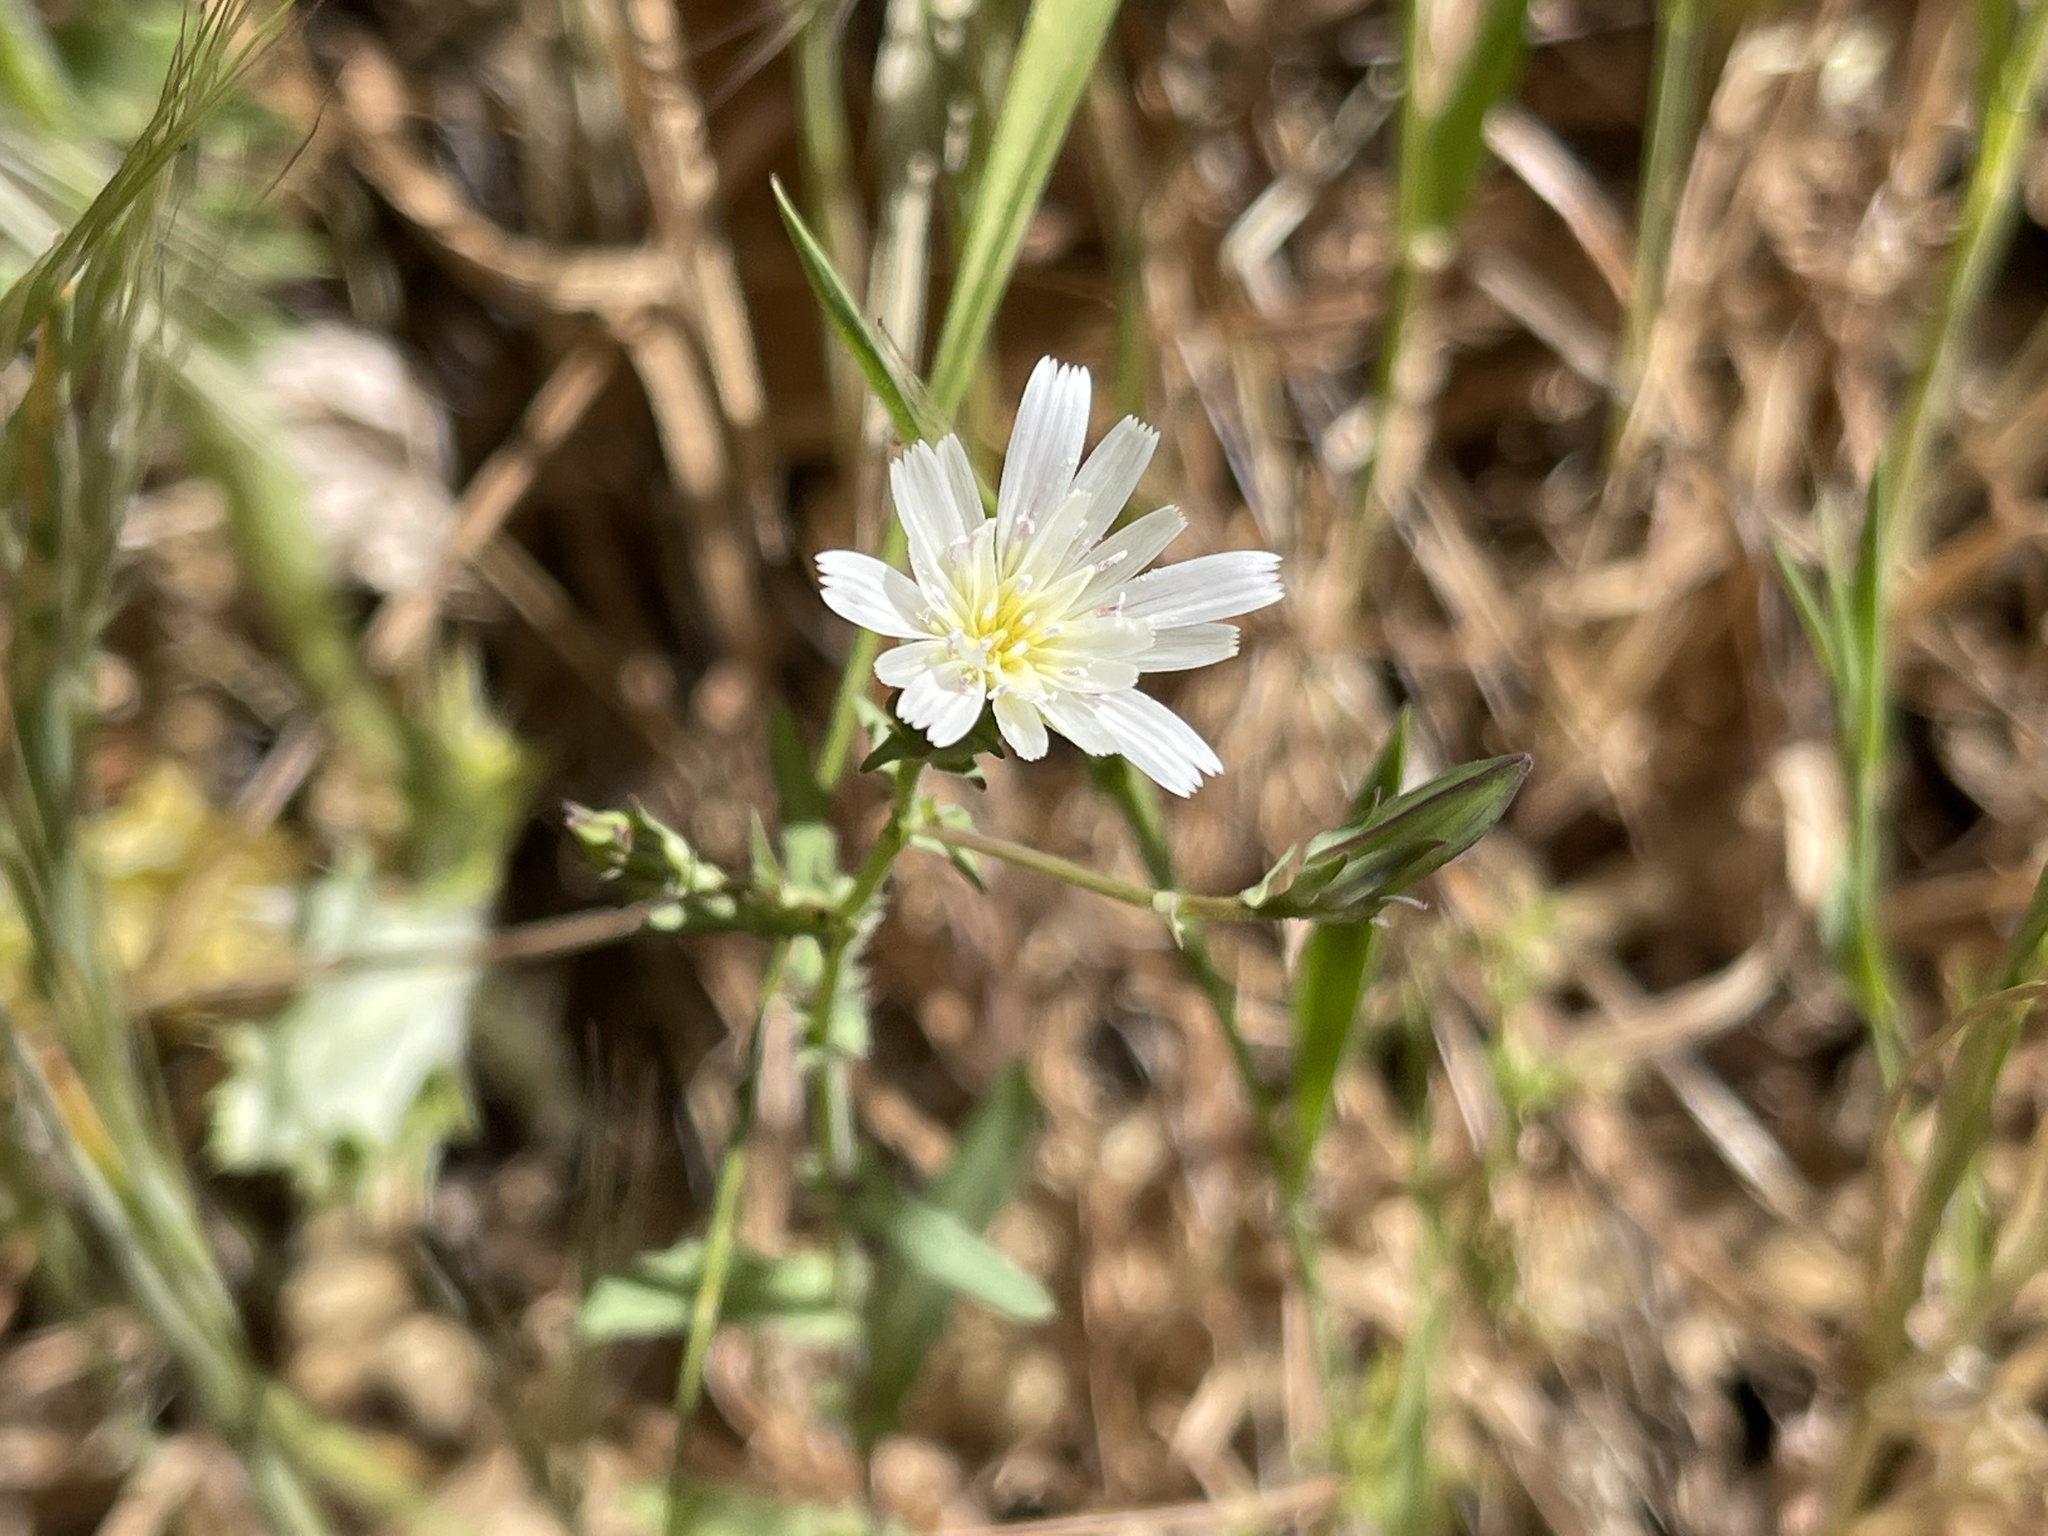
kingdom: Plantae
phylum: Tracheophyta
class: Magnoliopsida
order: Asterales
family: Asteraceae
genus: Rafinesquia
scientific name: Rafinesquia californica
